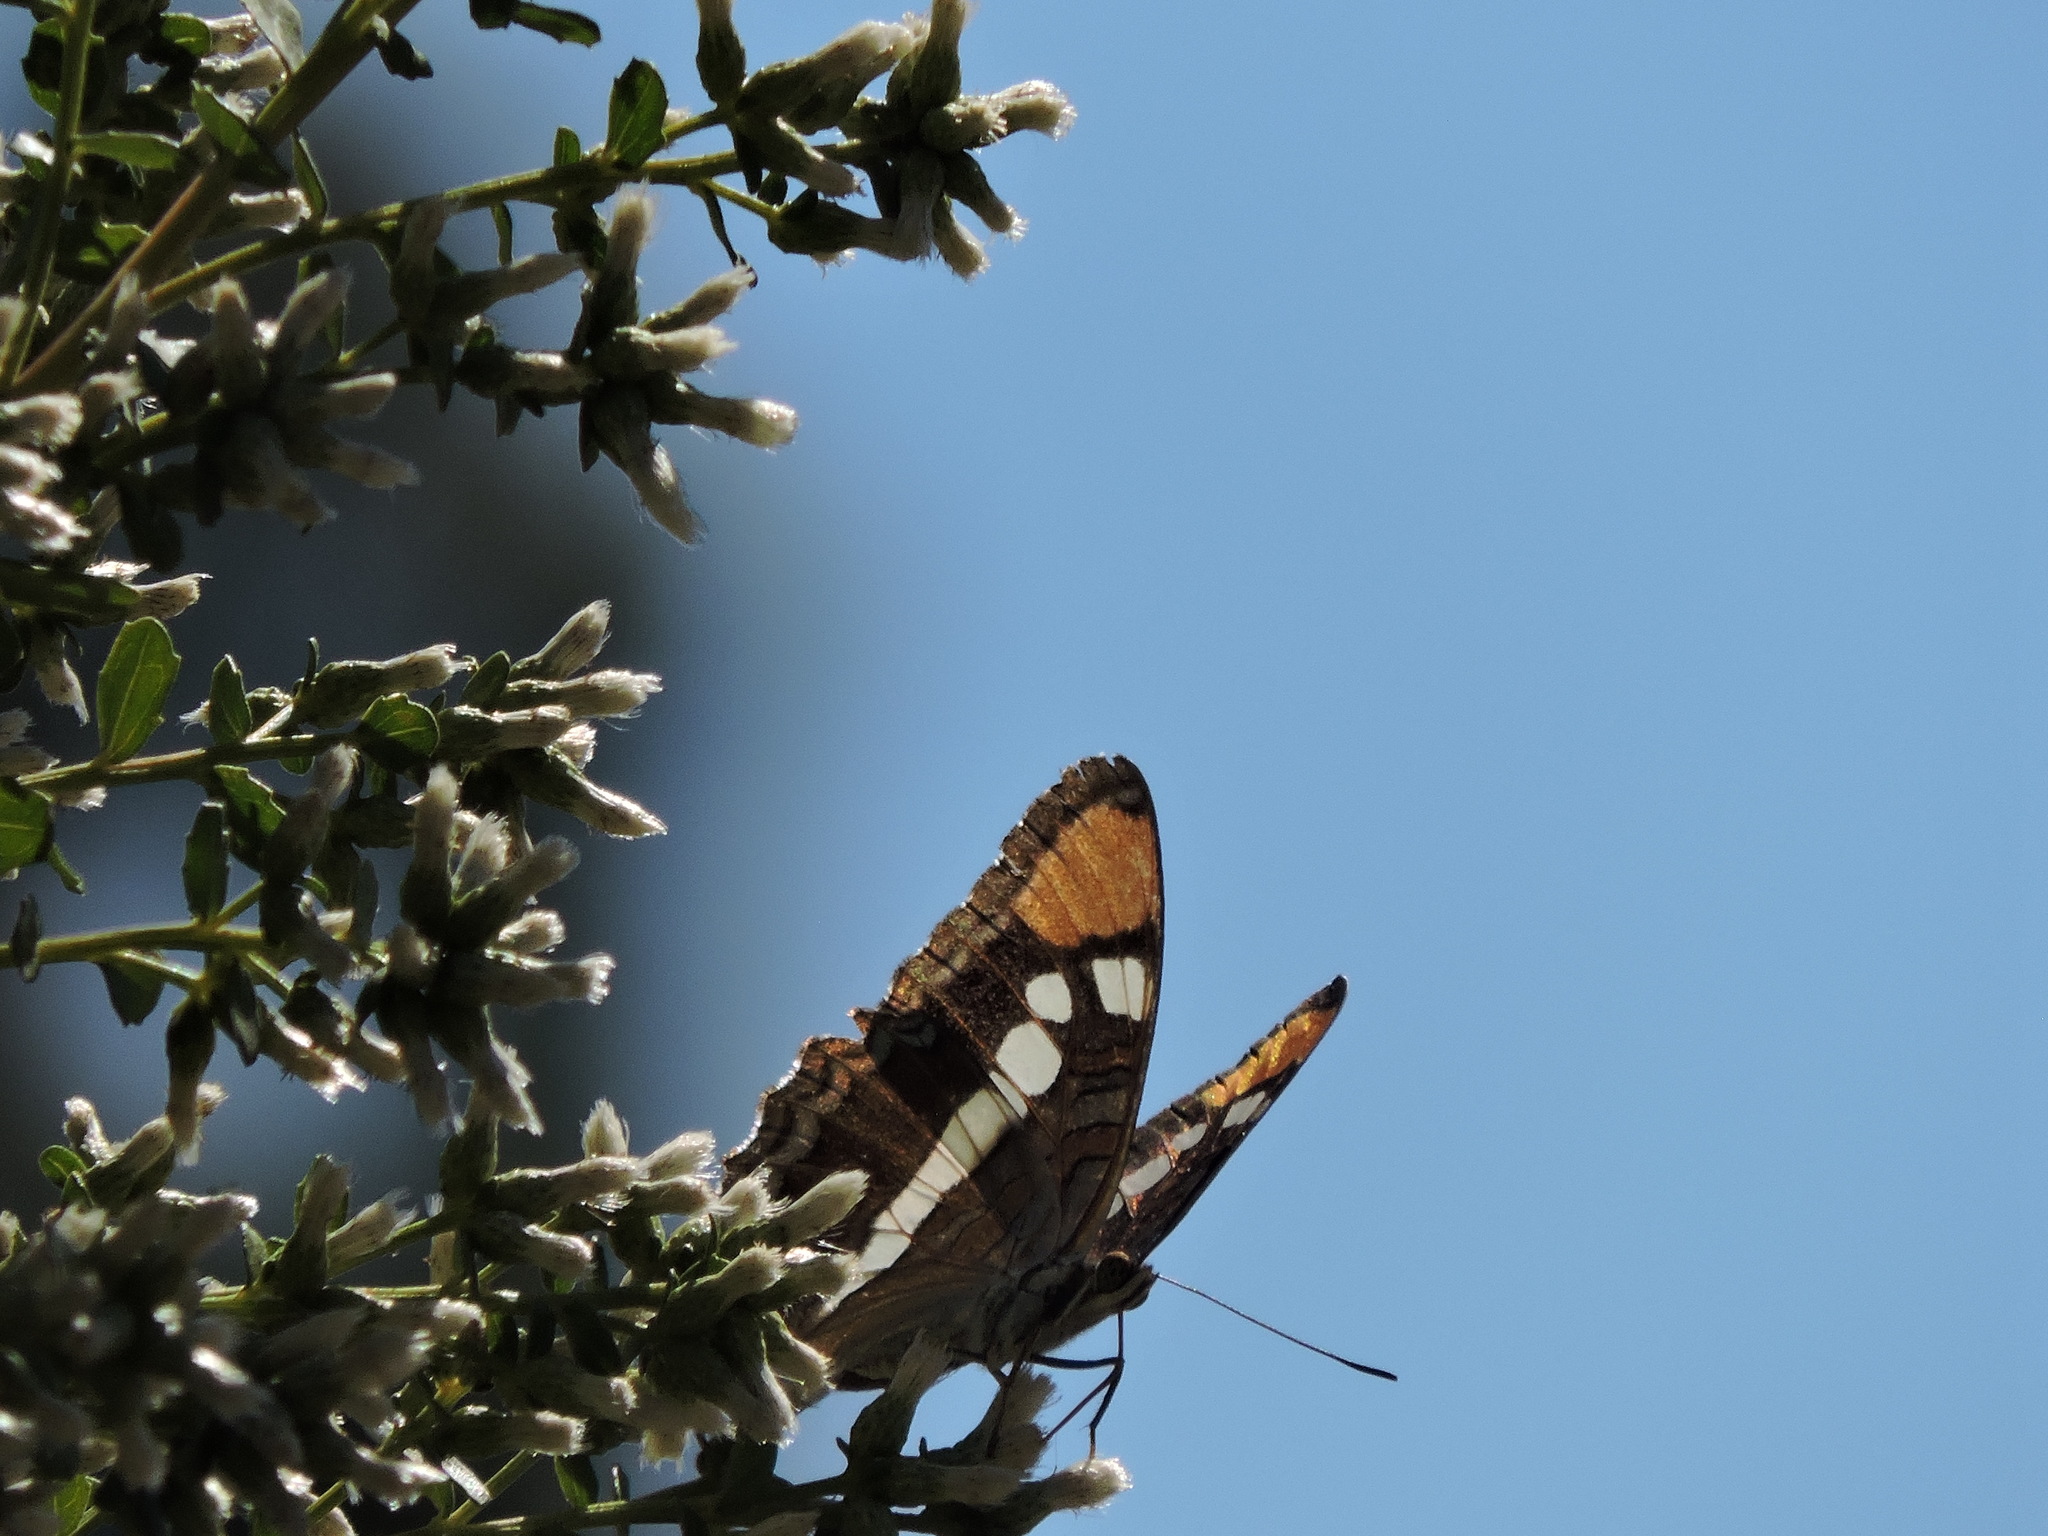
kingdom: Animalia
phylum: Arthropoda
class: Insecta
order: Lepidoptera
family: Nymphalidae
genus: Limenitis
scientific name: Limenitis bredowii
